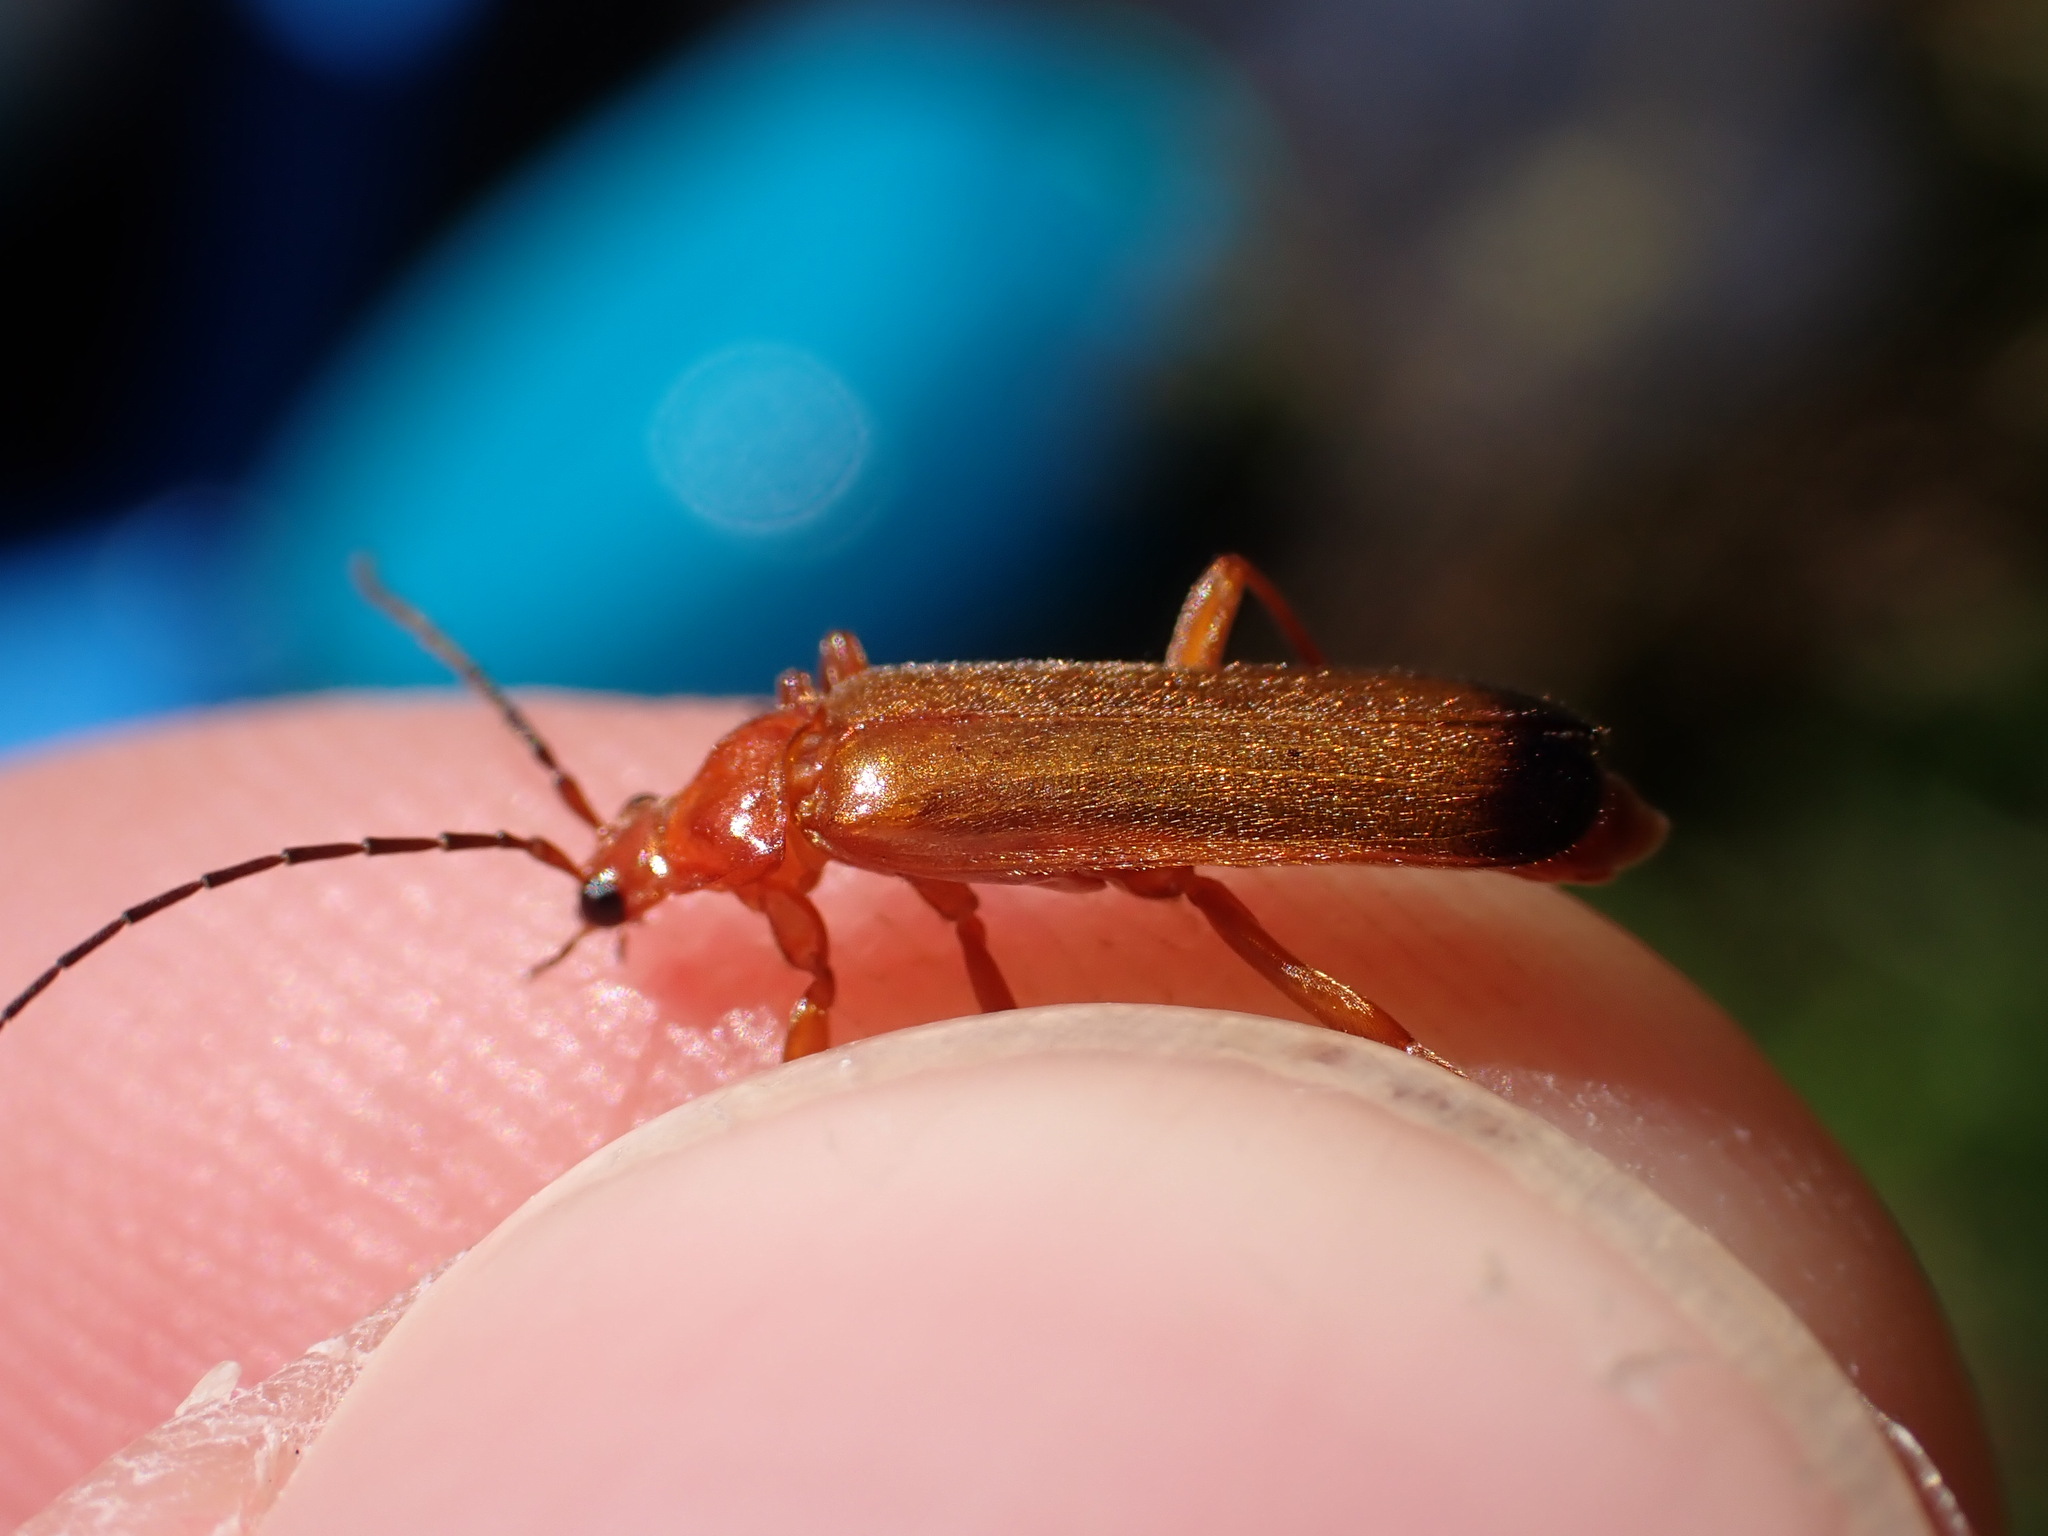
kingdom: Animalia
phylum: Arthropoda
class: Insecta
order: Coleoptera
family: Cantharidae
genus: Rhagonycha
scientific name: Rhagonycha fulva
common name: Common red soldier beetle
